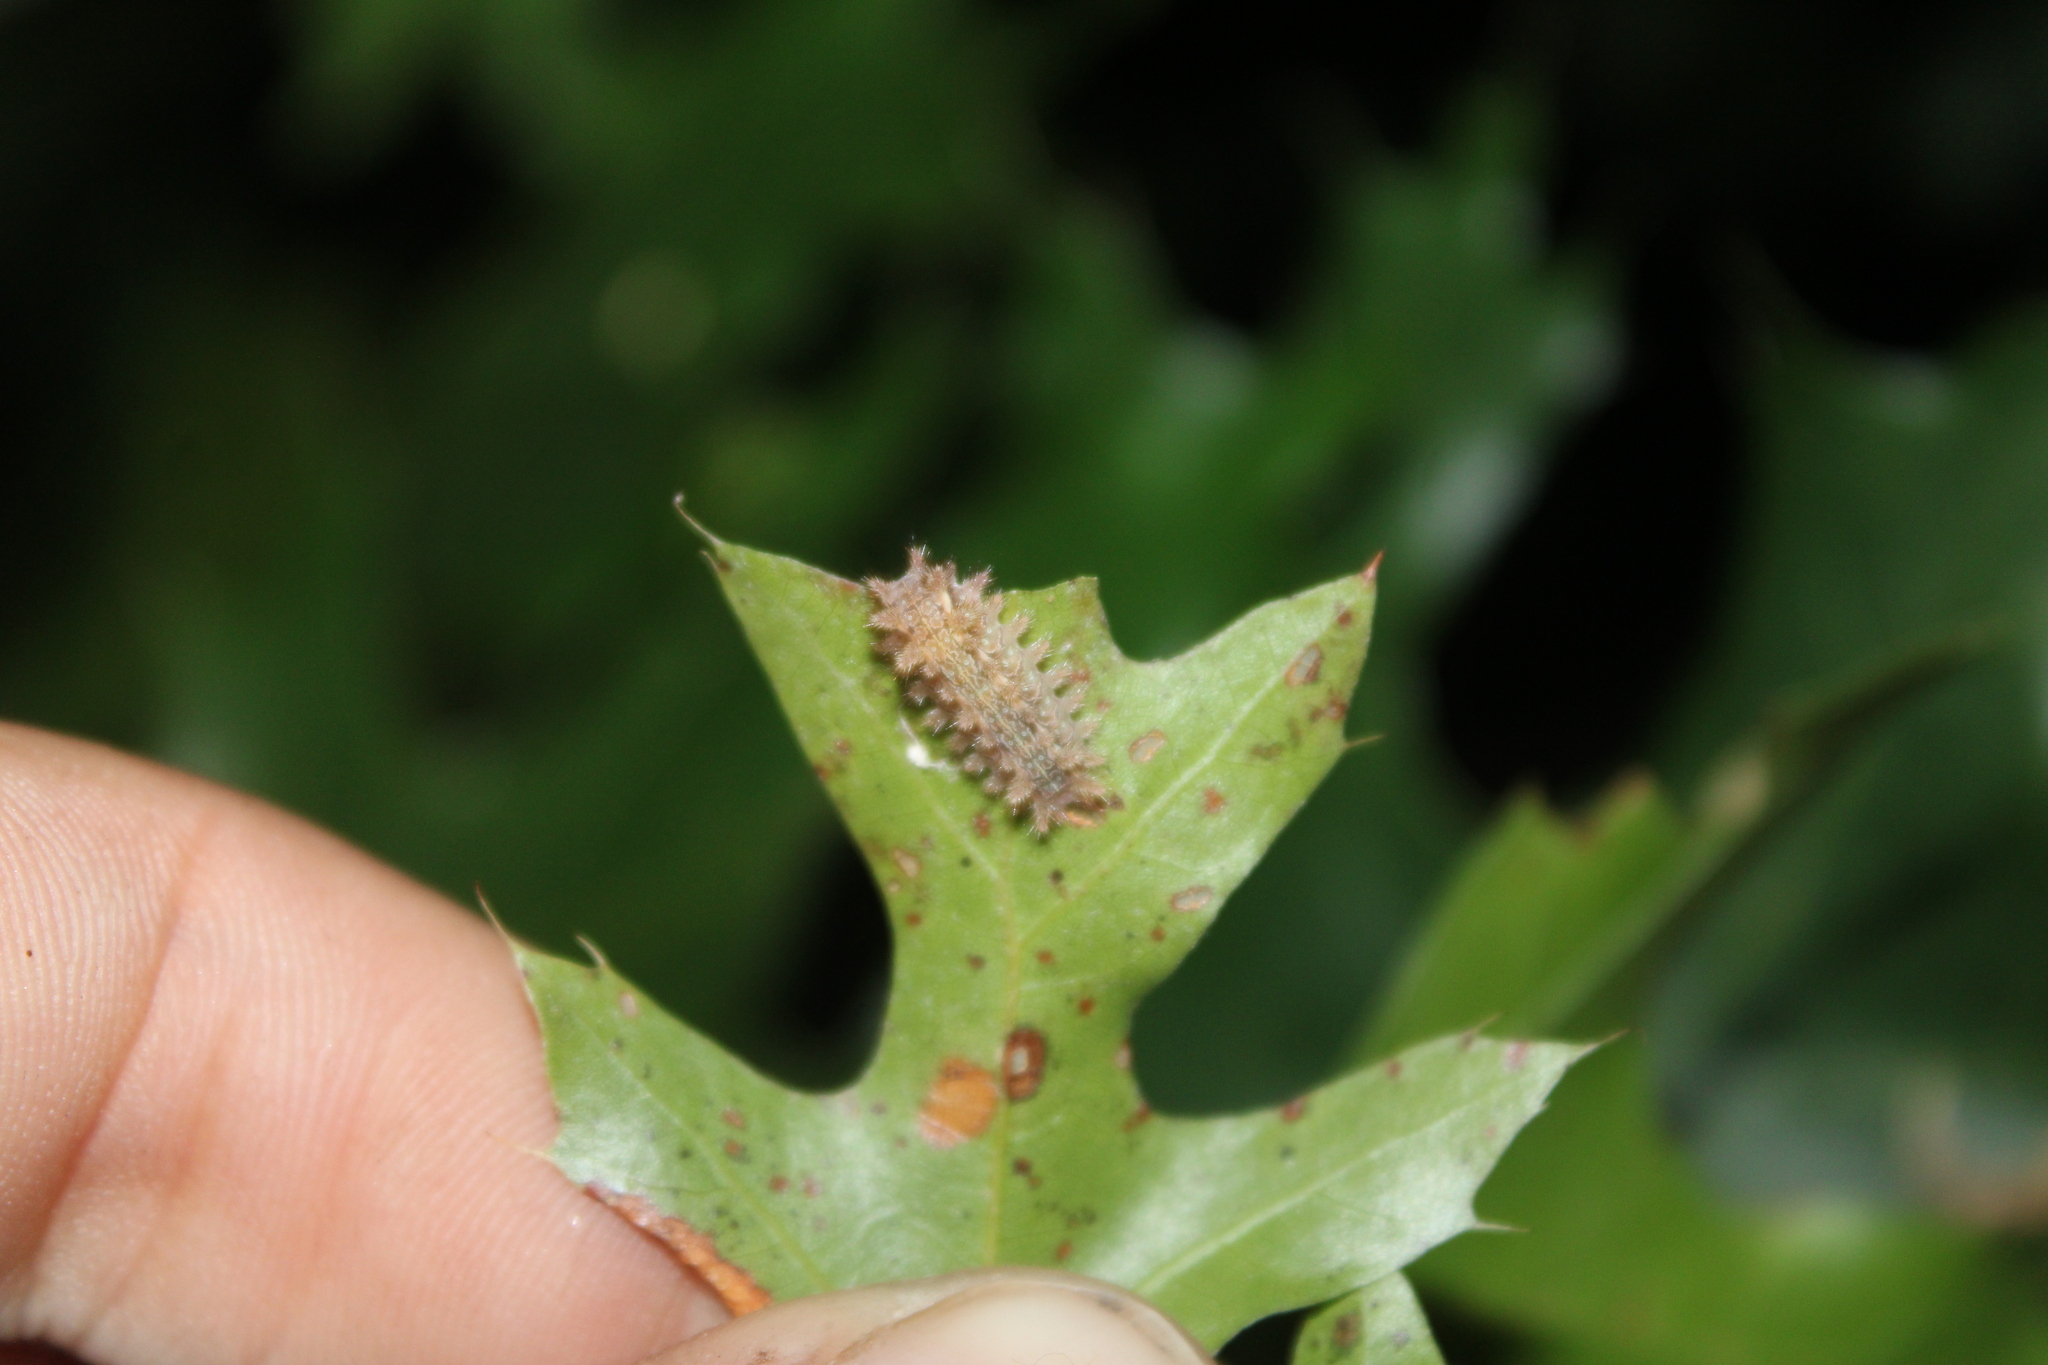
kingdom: Animalia
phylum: Arthropoda
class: Insecta
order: Lepidoptera
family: Limacodidae
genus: Euclea
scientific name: Euclea delphinii
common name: Spiny oak-slug moth
